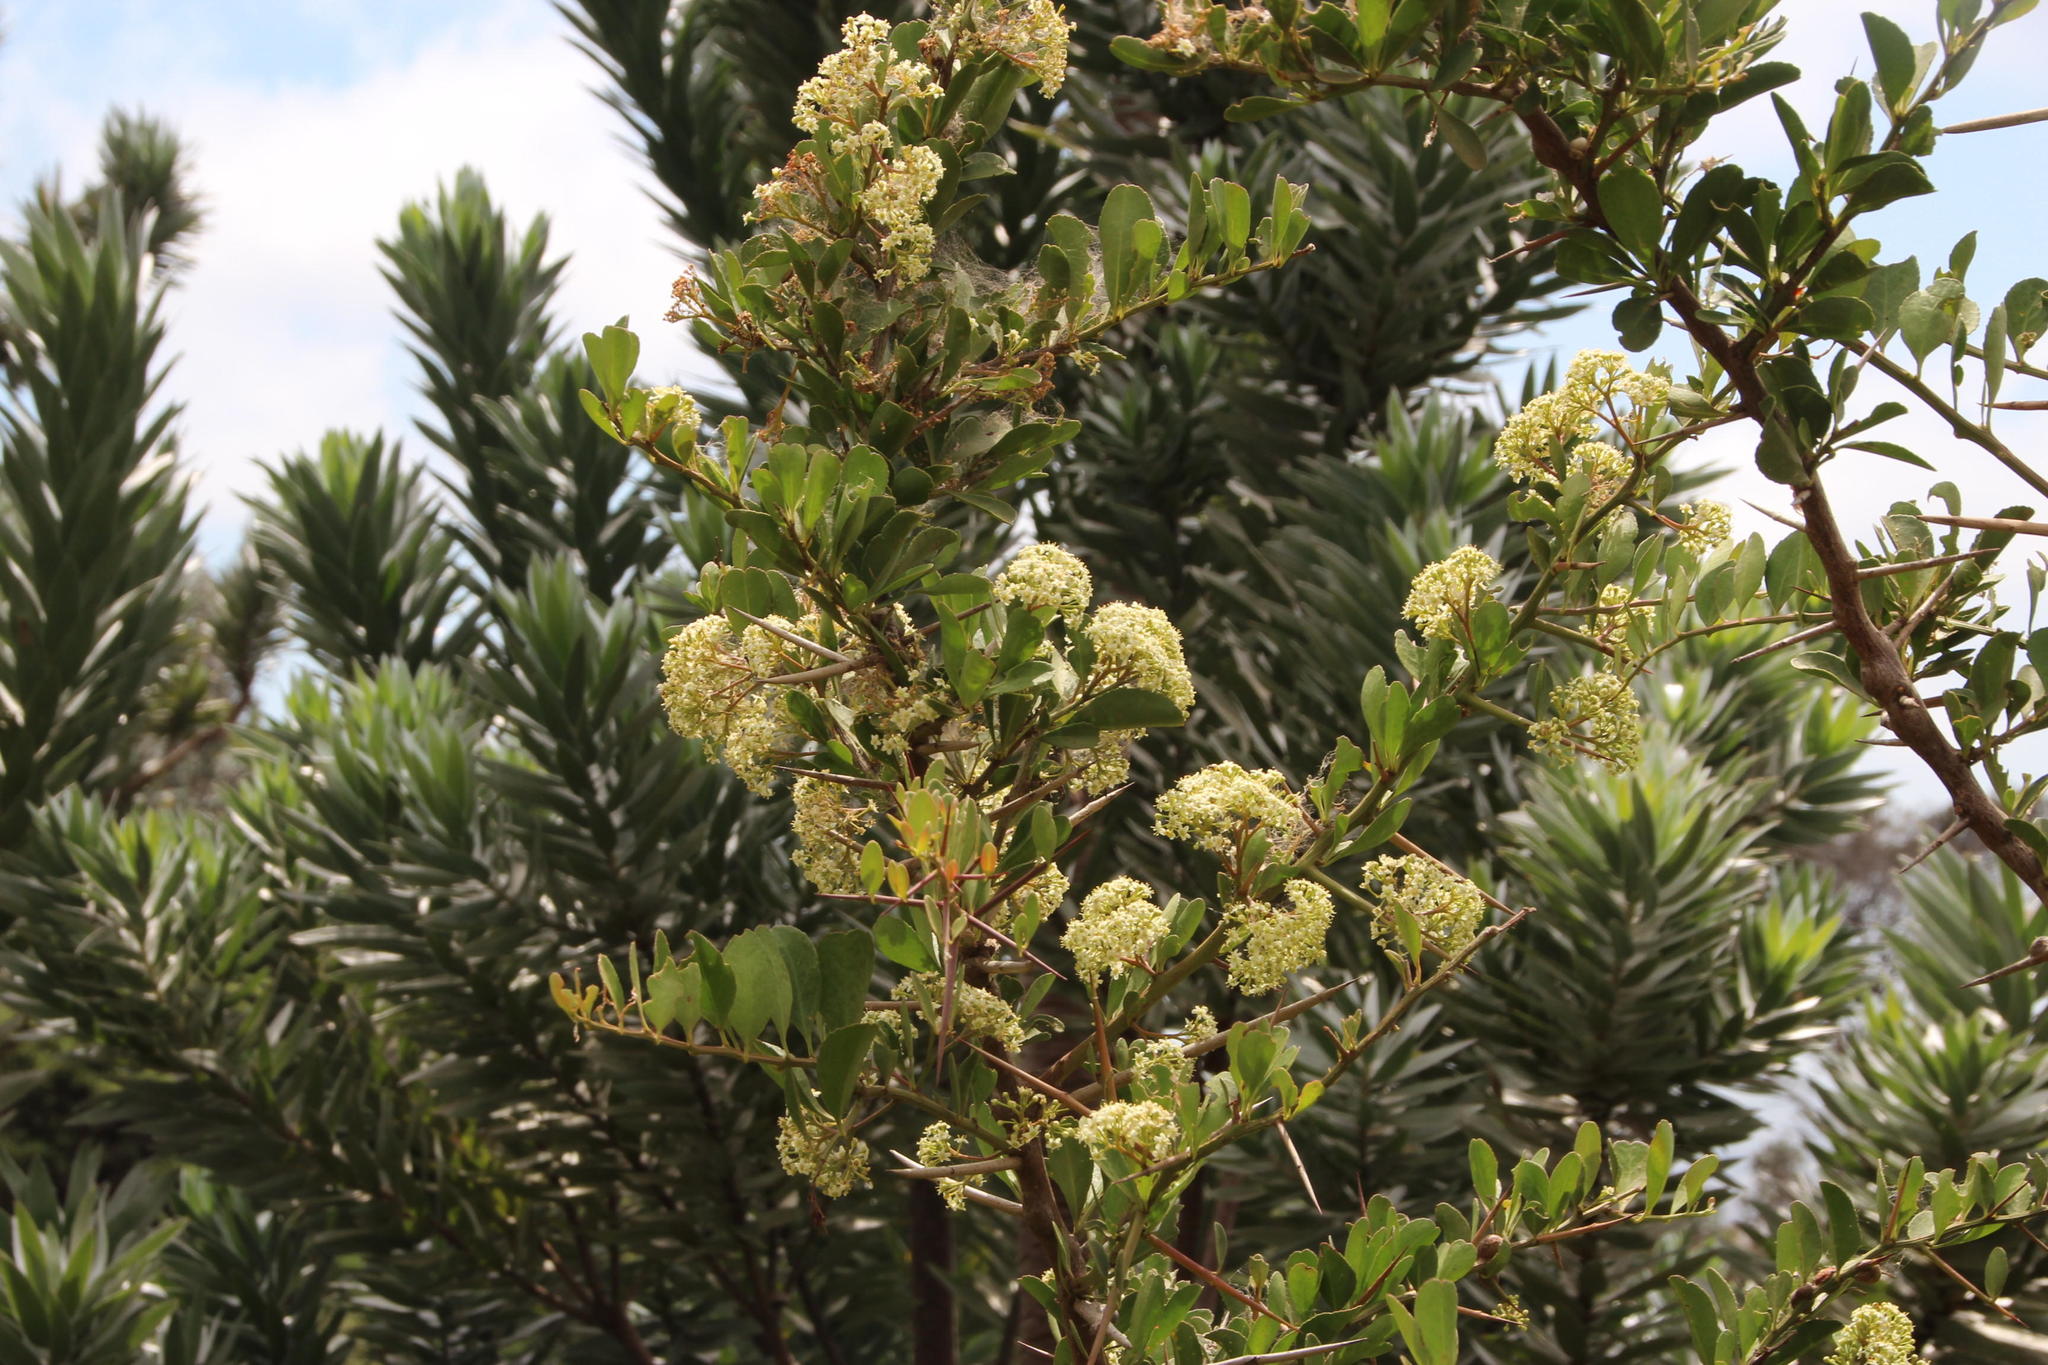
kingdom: Plantae
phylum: Tracheophyta
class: Magnoliopsida
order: Celastrales
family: Celastraceae
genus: Gymnosporia
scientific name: Gymnosporia buxifolia
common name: Common spike-thorn
